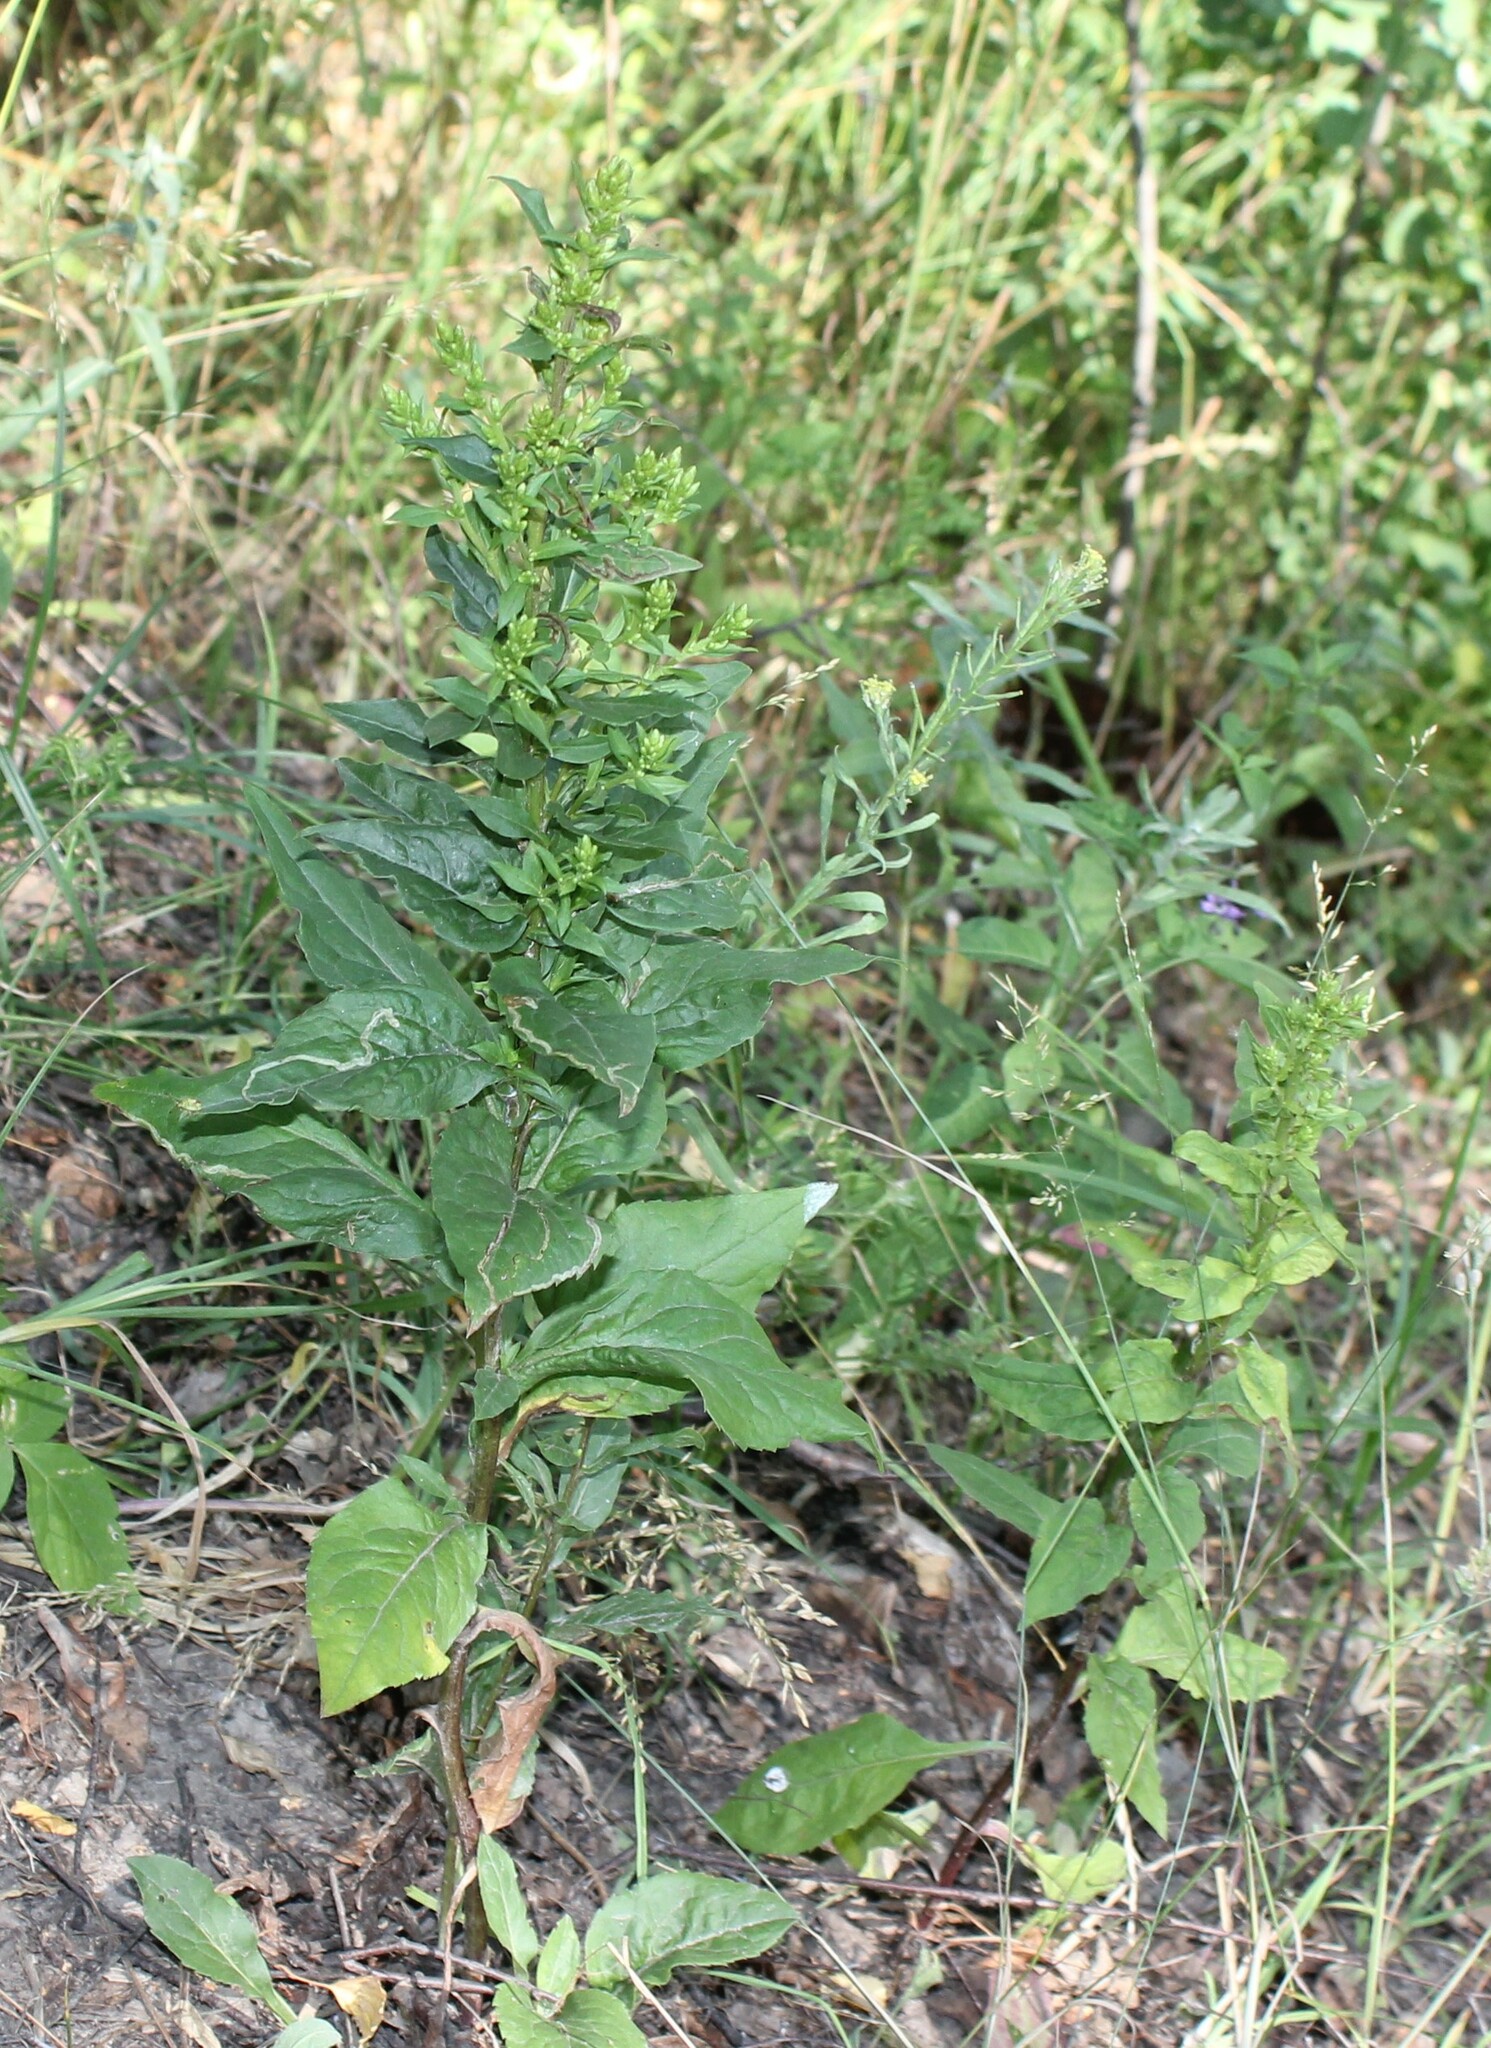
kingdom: Plantae
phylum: Tracheophyta
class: Magnoliopsida
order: Asterales
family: Asteraceae
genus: Solidago
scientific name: Solidago virgaurea
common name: Goldenrod
